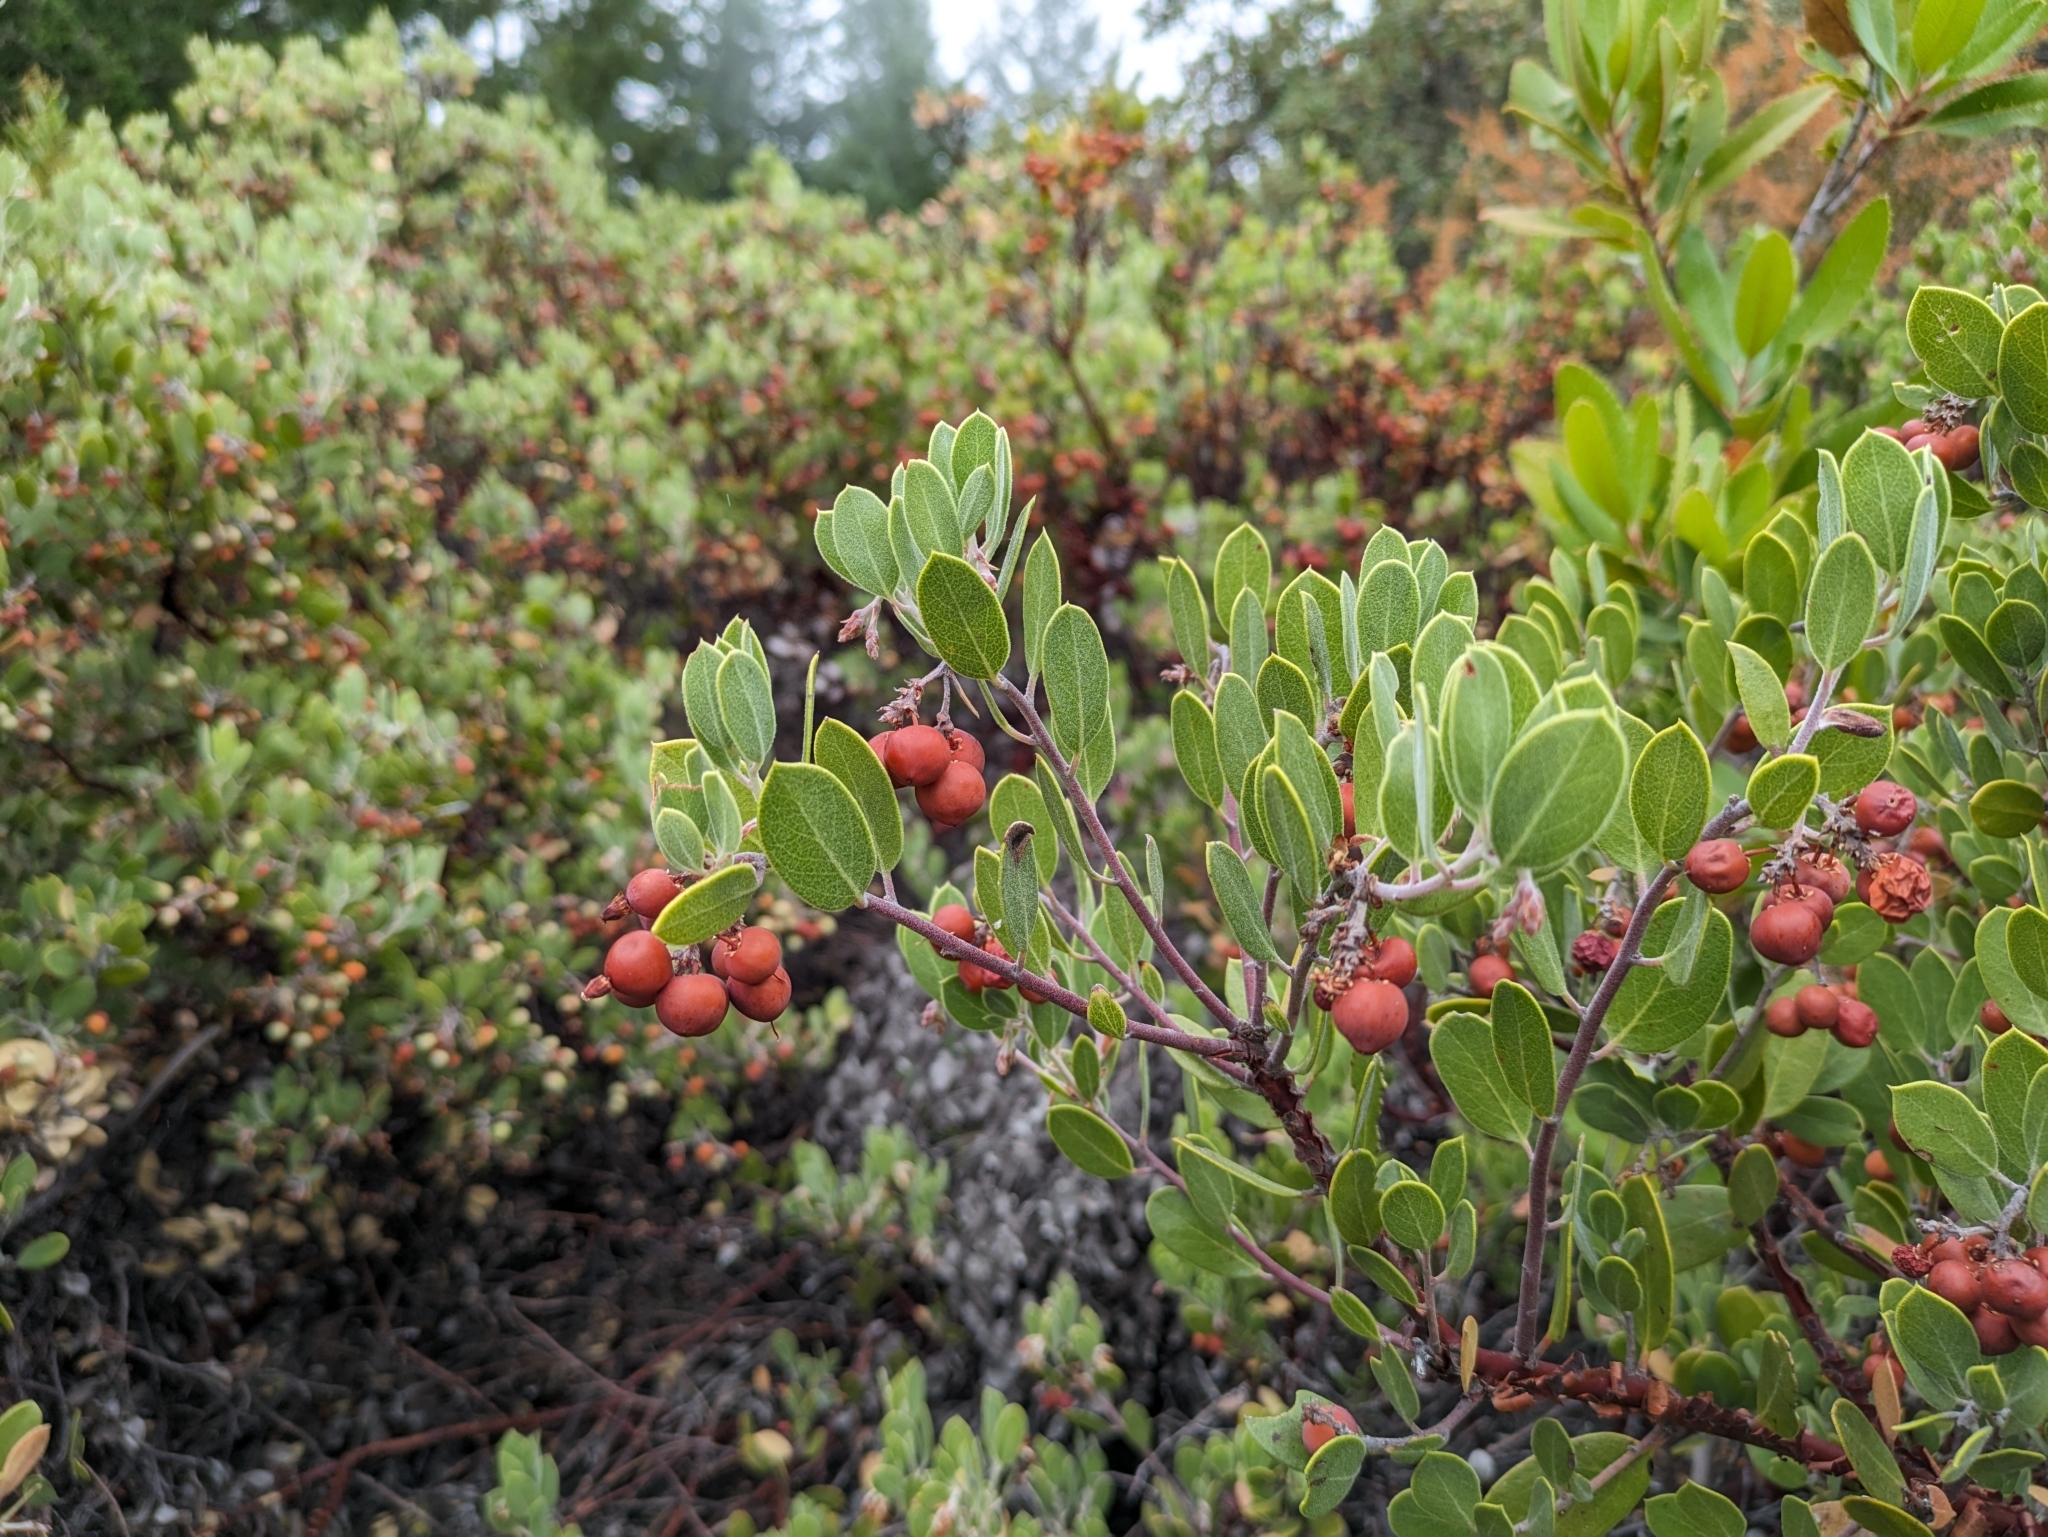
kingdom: Plantae
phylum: Tracheophyta
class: Magnoliopsida
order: Ericales
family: Ericaceae
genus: Arctostaphylos
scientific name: Arctostaphylos montana
